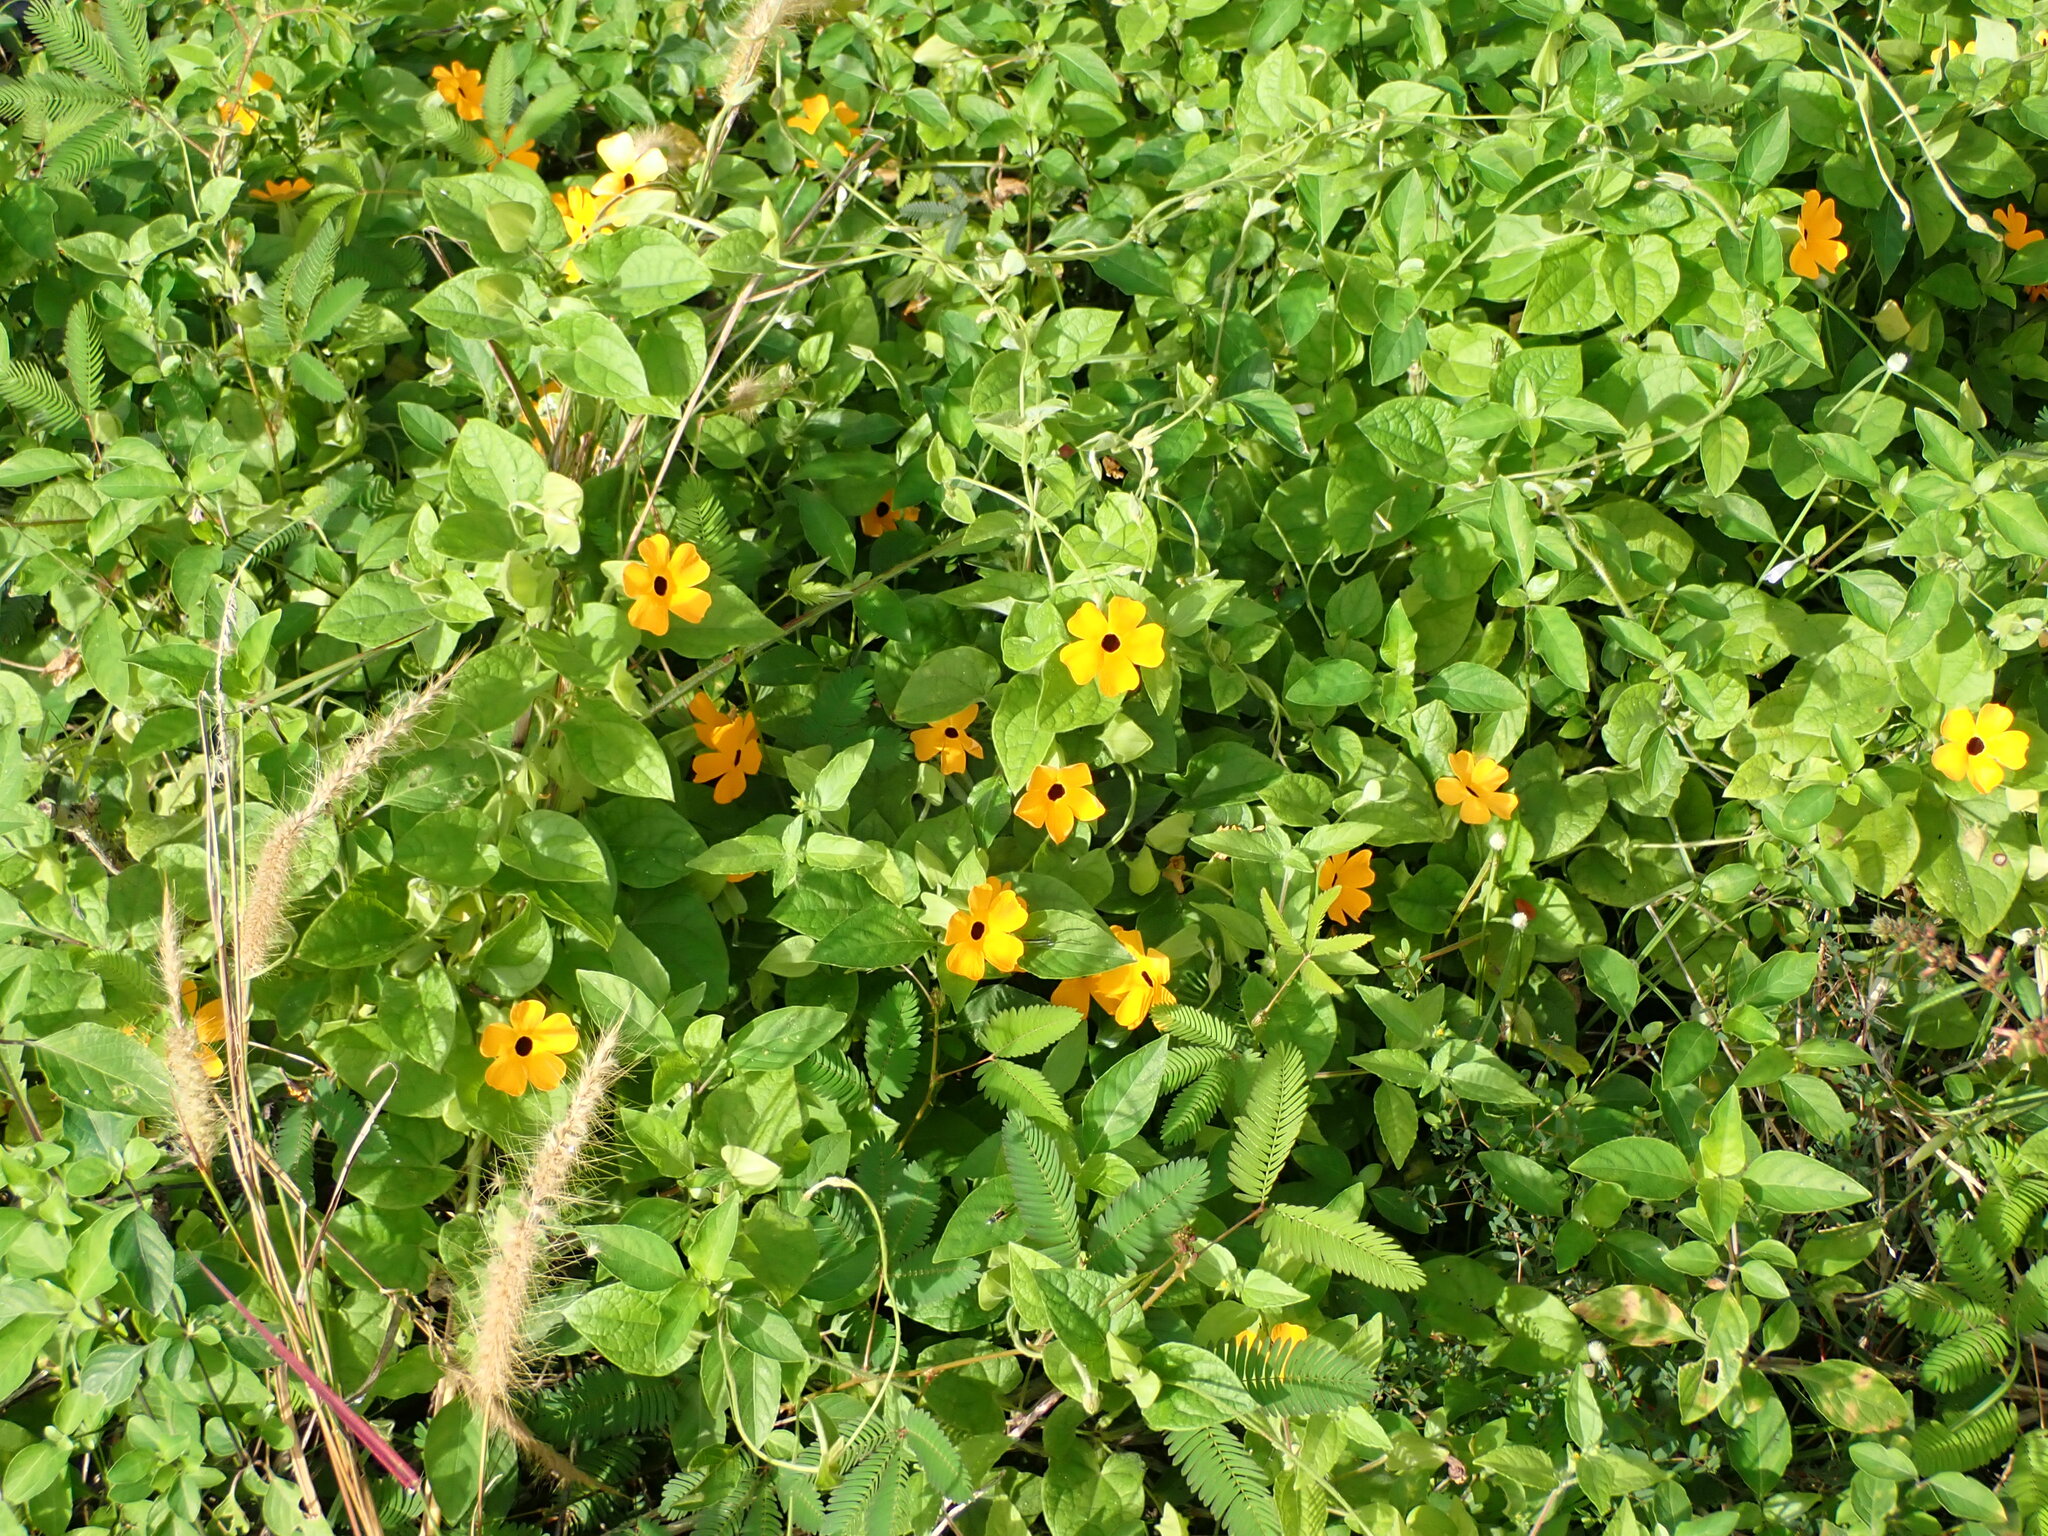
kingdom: Plantae
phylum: Tracheophyta
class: Magnoliopsida
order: Lamiales
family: Acanthaceae
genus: Thunbergia
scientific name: Thunbergia alata
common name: Blackeyed susan vine
